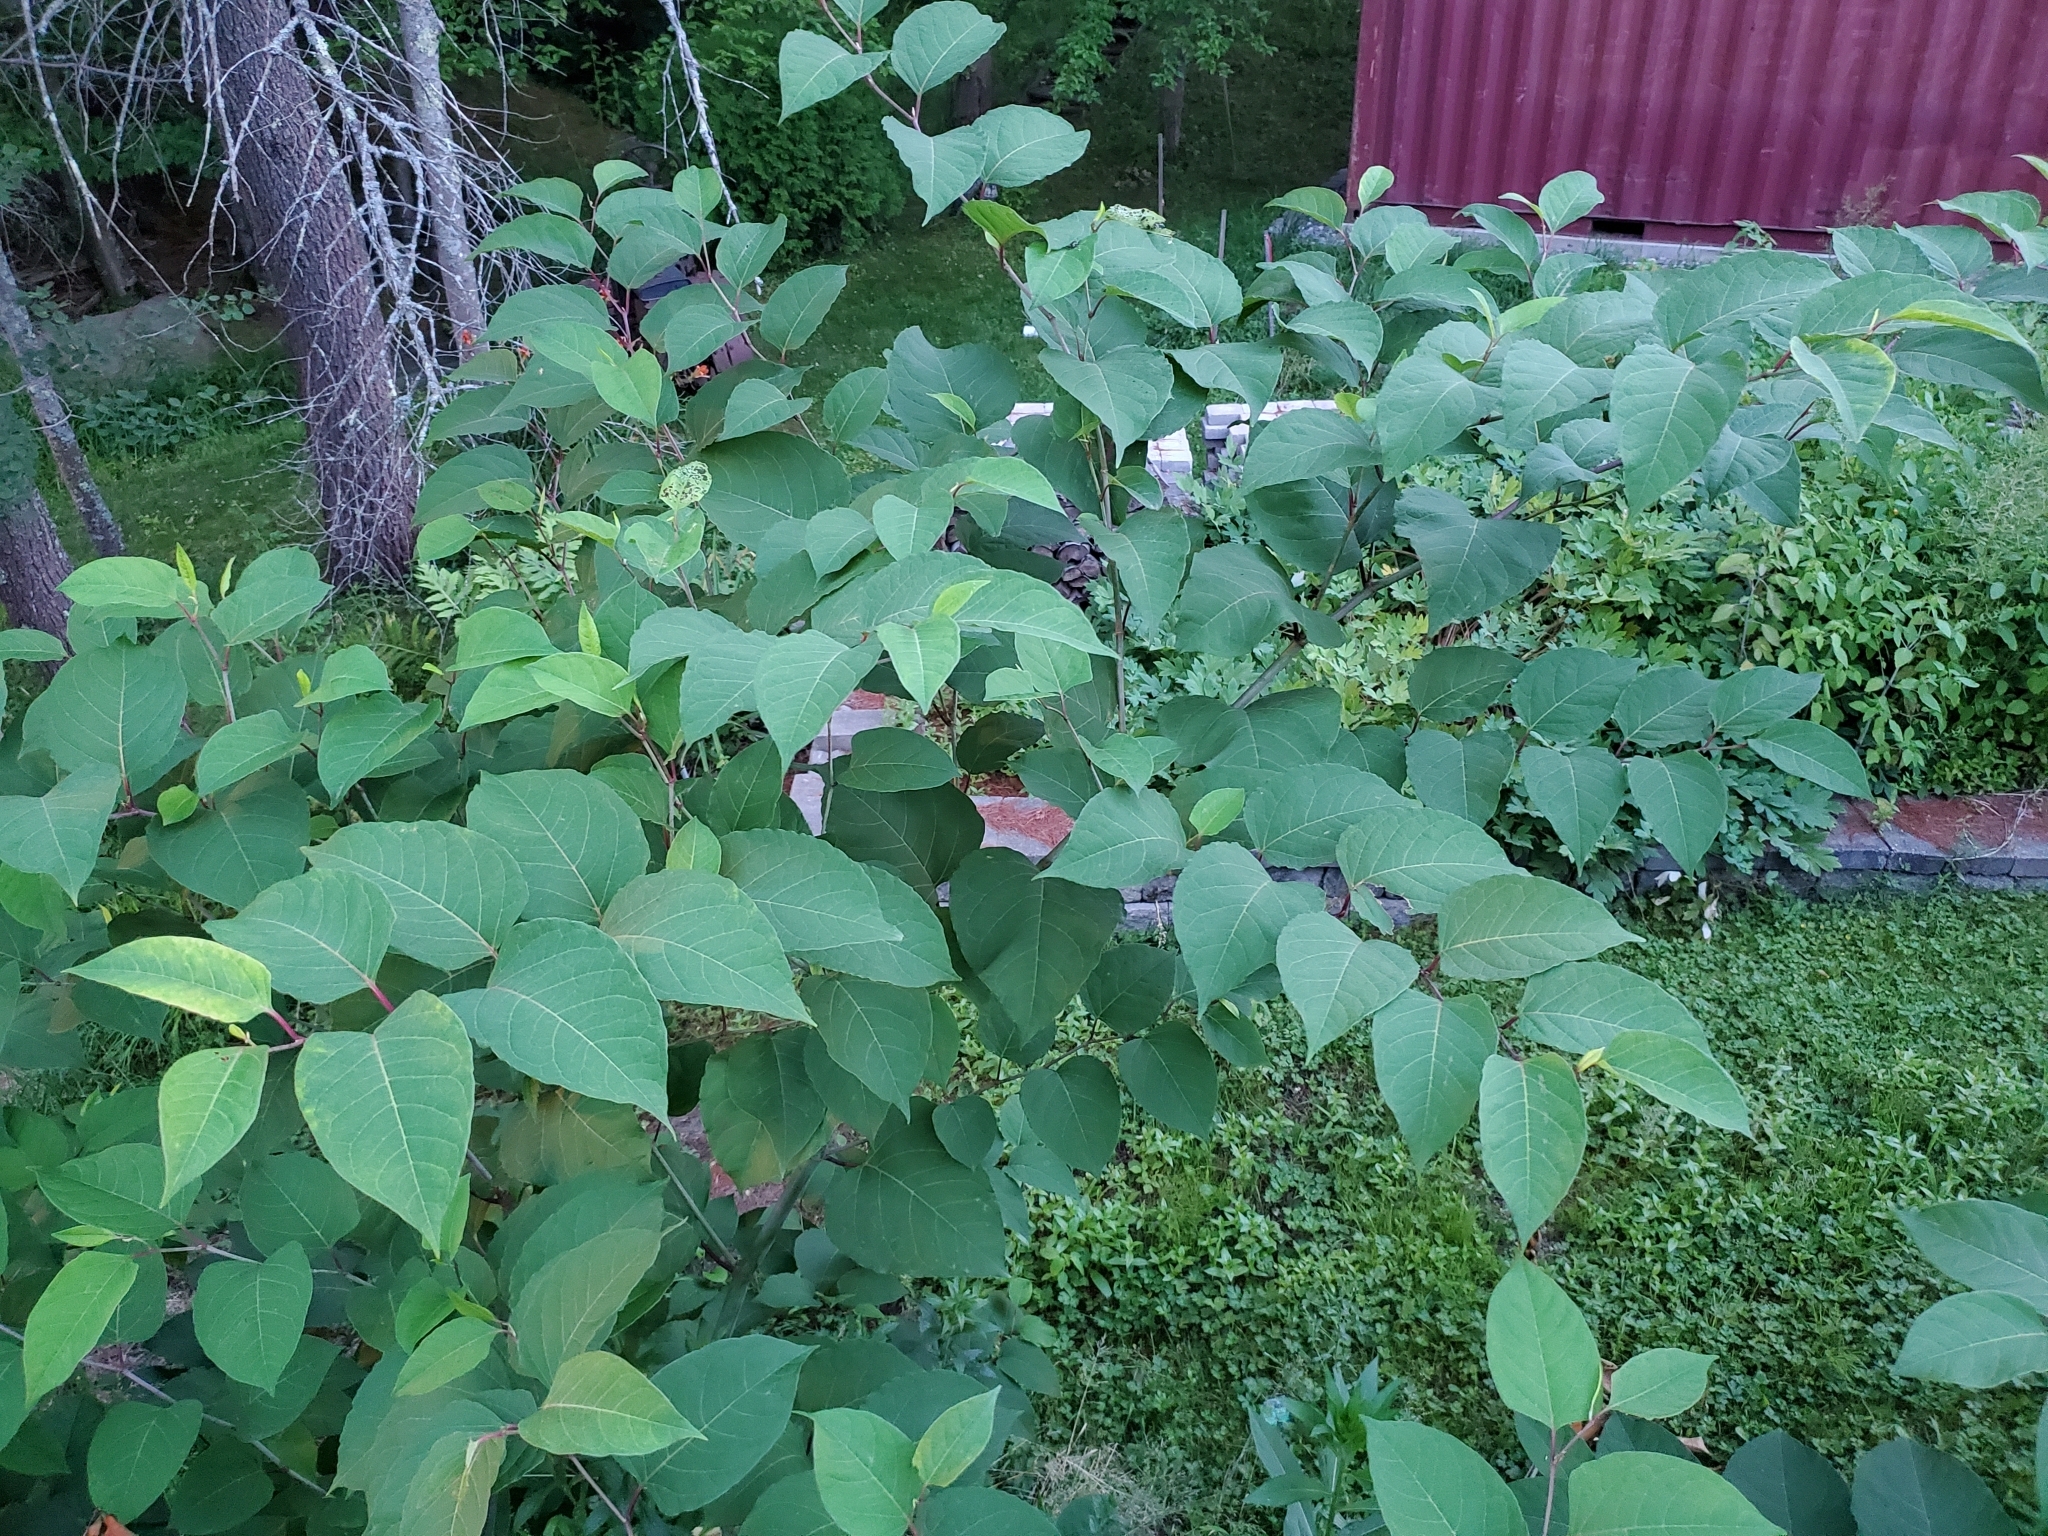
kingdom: Plantae
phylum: Tracheophyta
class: Magnoliopsida
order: Caryophyllales
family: Polygonaceae
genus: Reynoutria
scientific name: Reynoutria japonica
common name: Japanese knotweed
